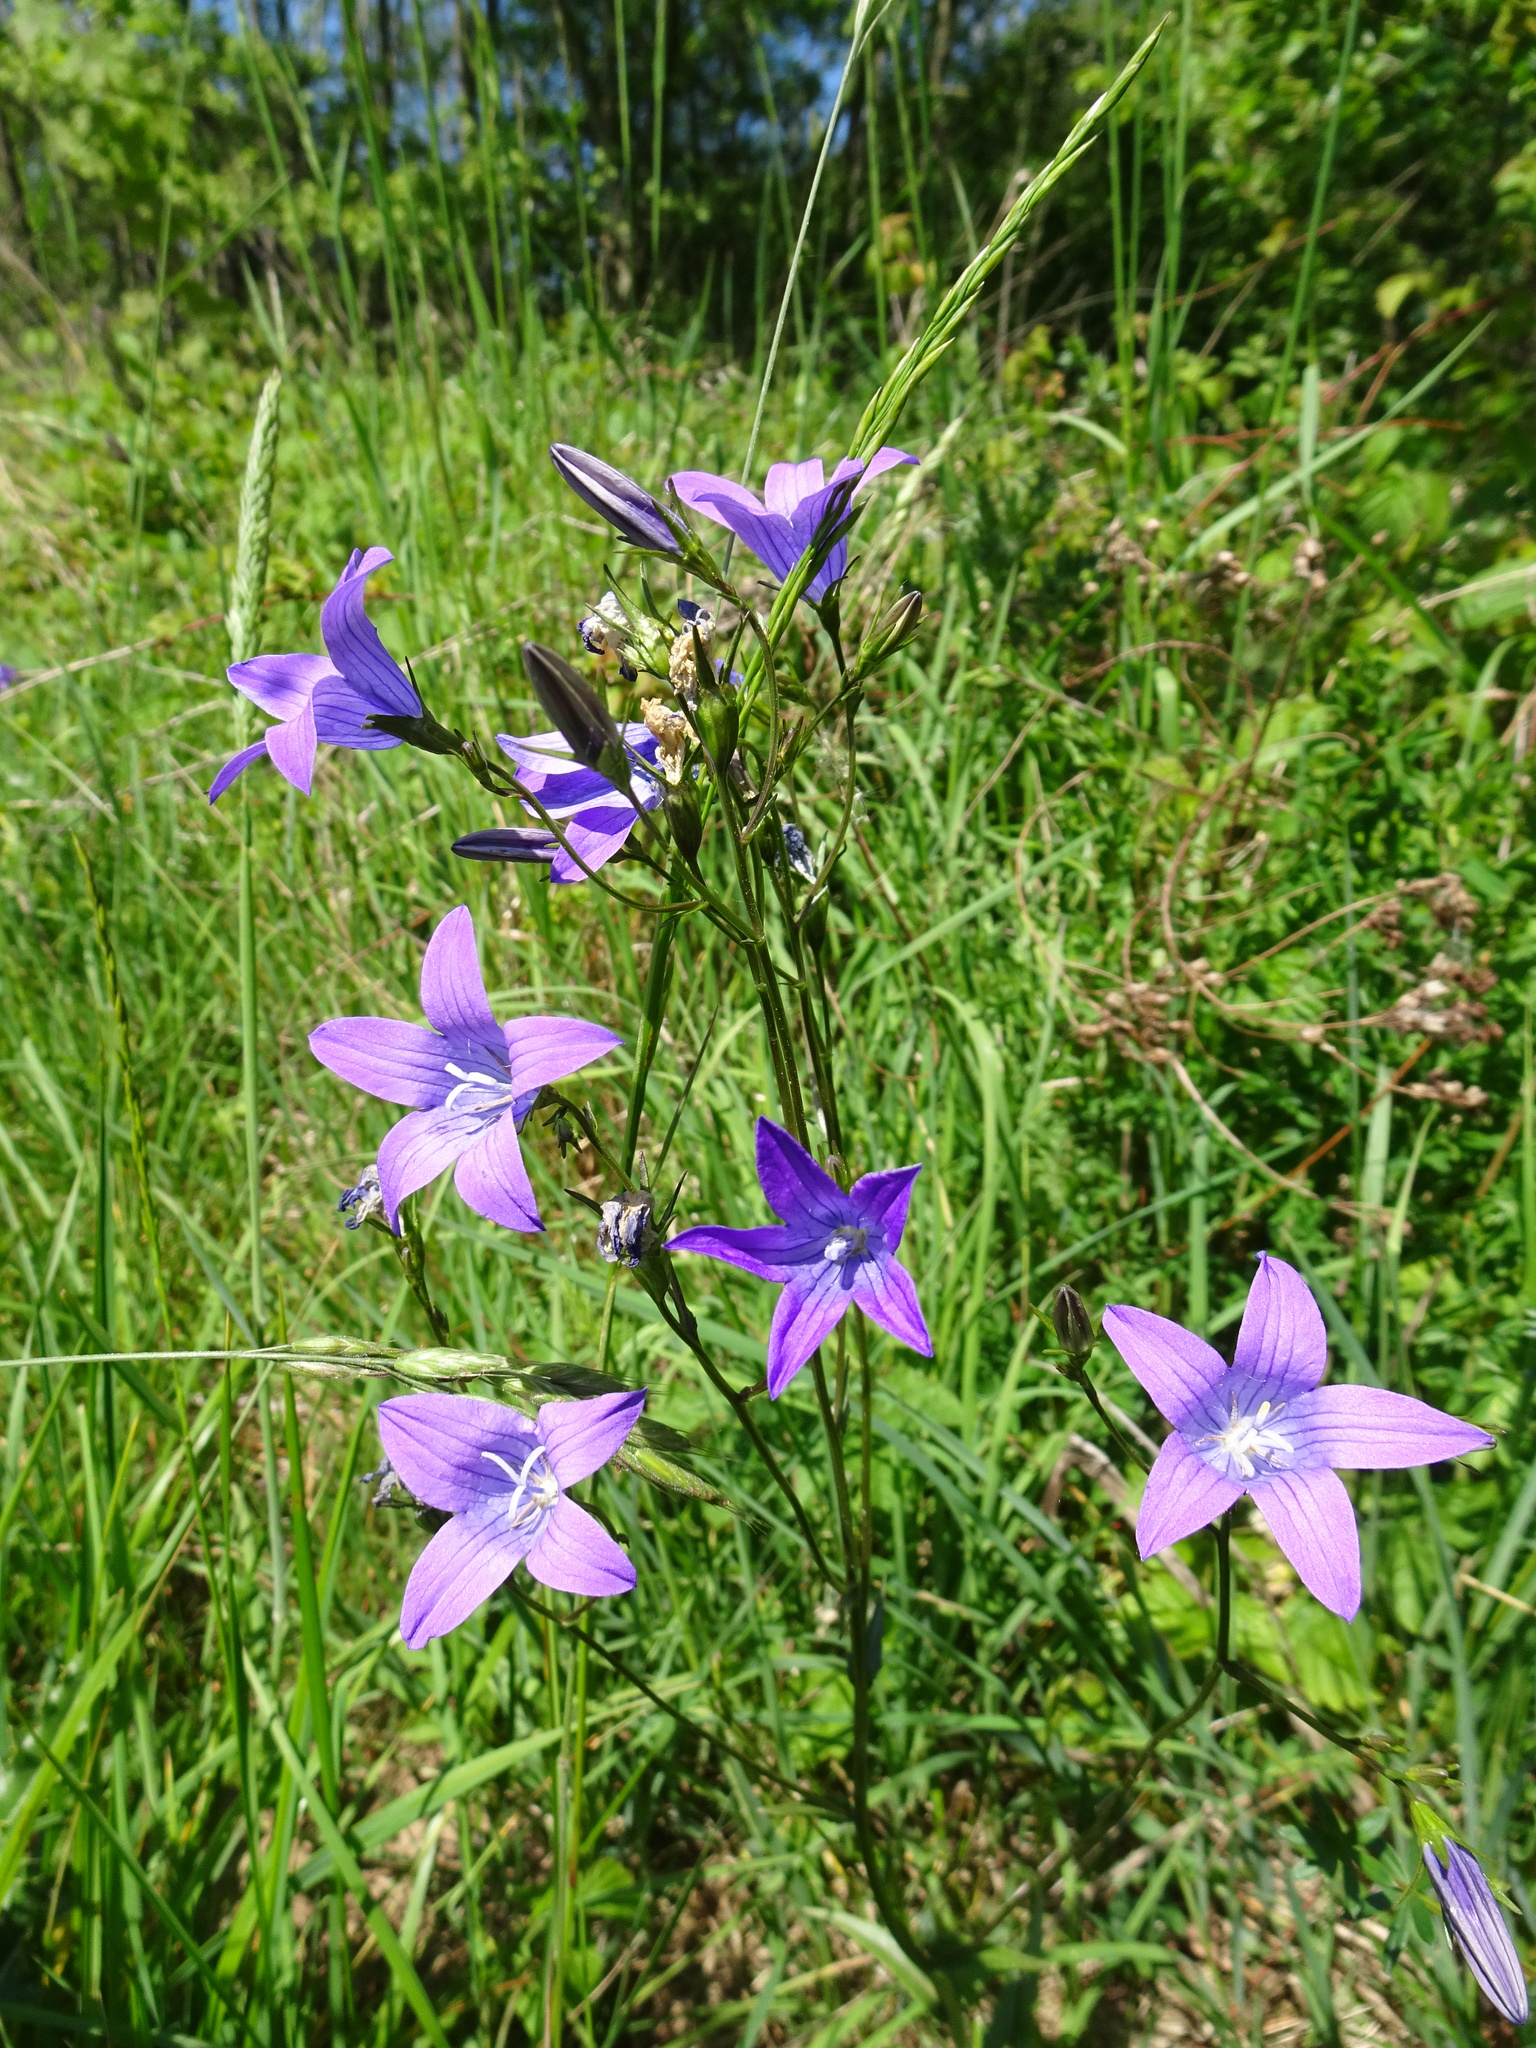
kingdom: Plantae
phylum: Tracheophyta
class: Magnoliopsida
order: Asterales
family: Campanulaceae
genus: Campanula
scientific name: Campanula patula
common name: Spreading bellflower
